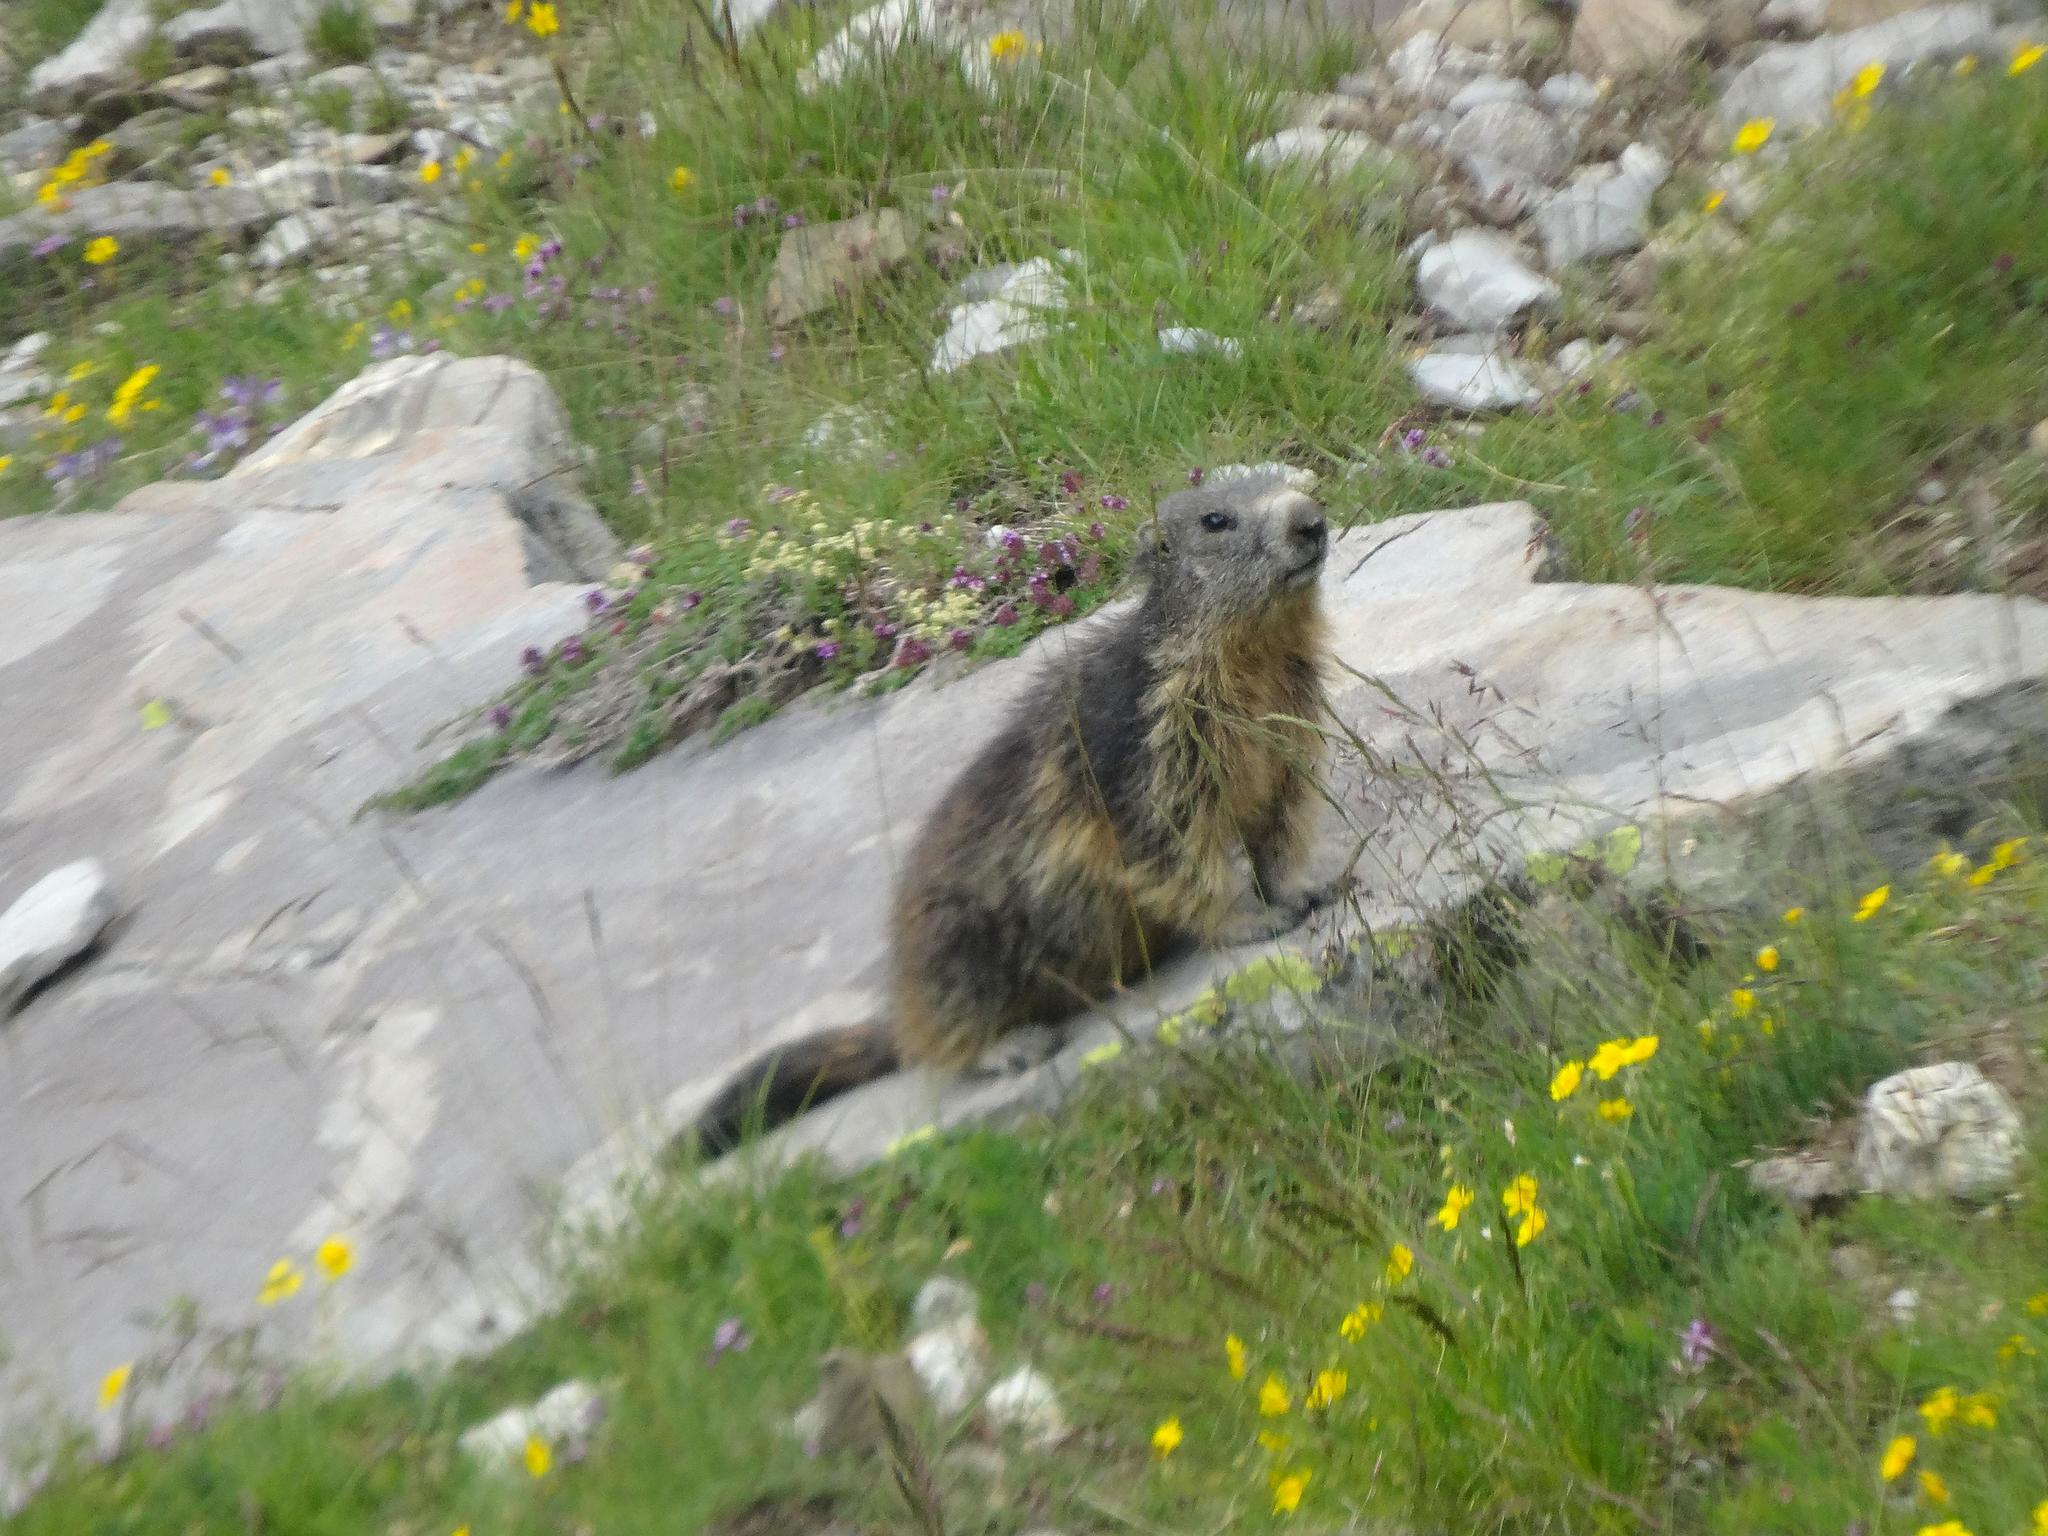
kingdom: Animalia
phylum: Chordata
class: Mammalia
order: Rodentia
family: Sciuridae
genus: Marmota
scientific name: Marmota marmota
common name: Alpine marmot
